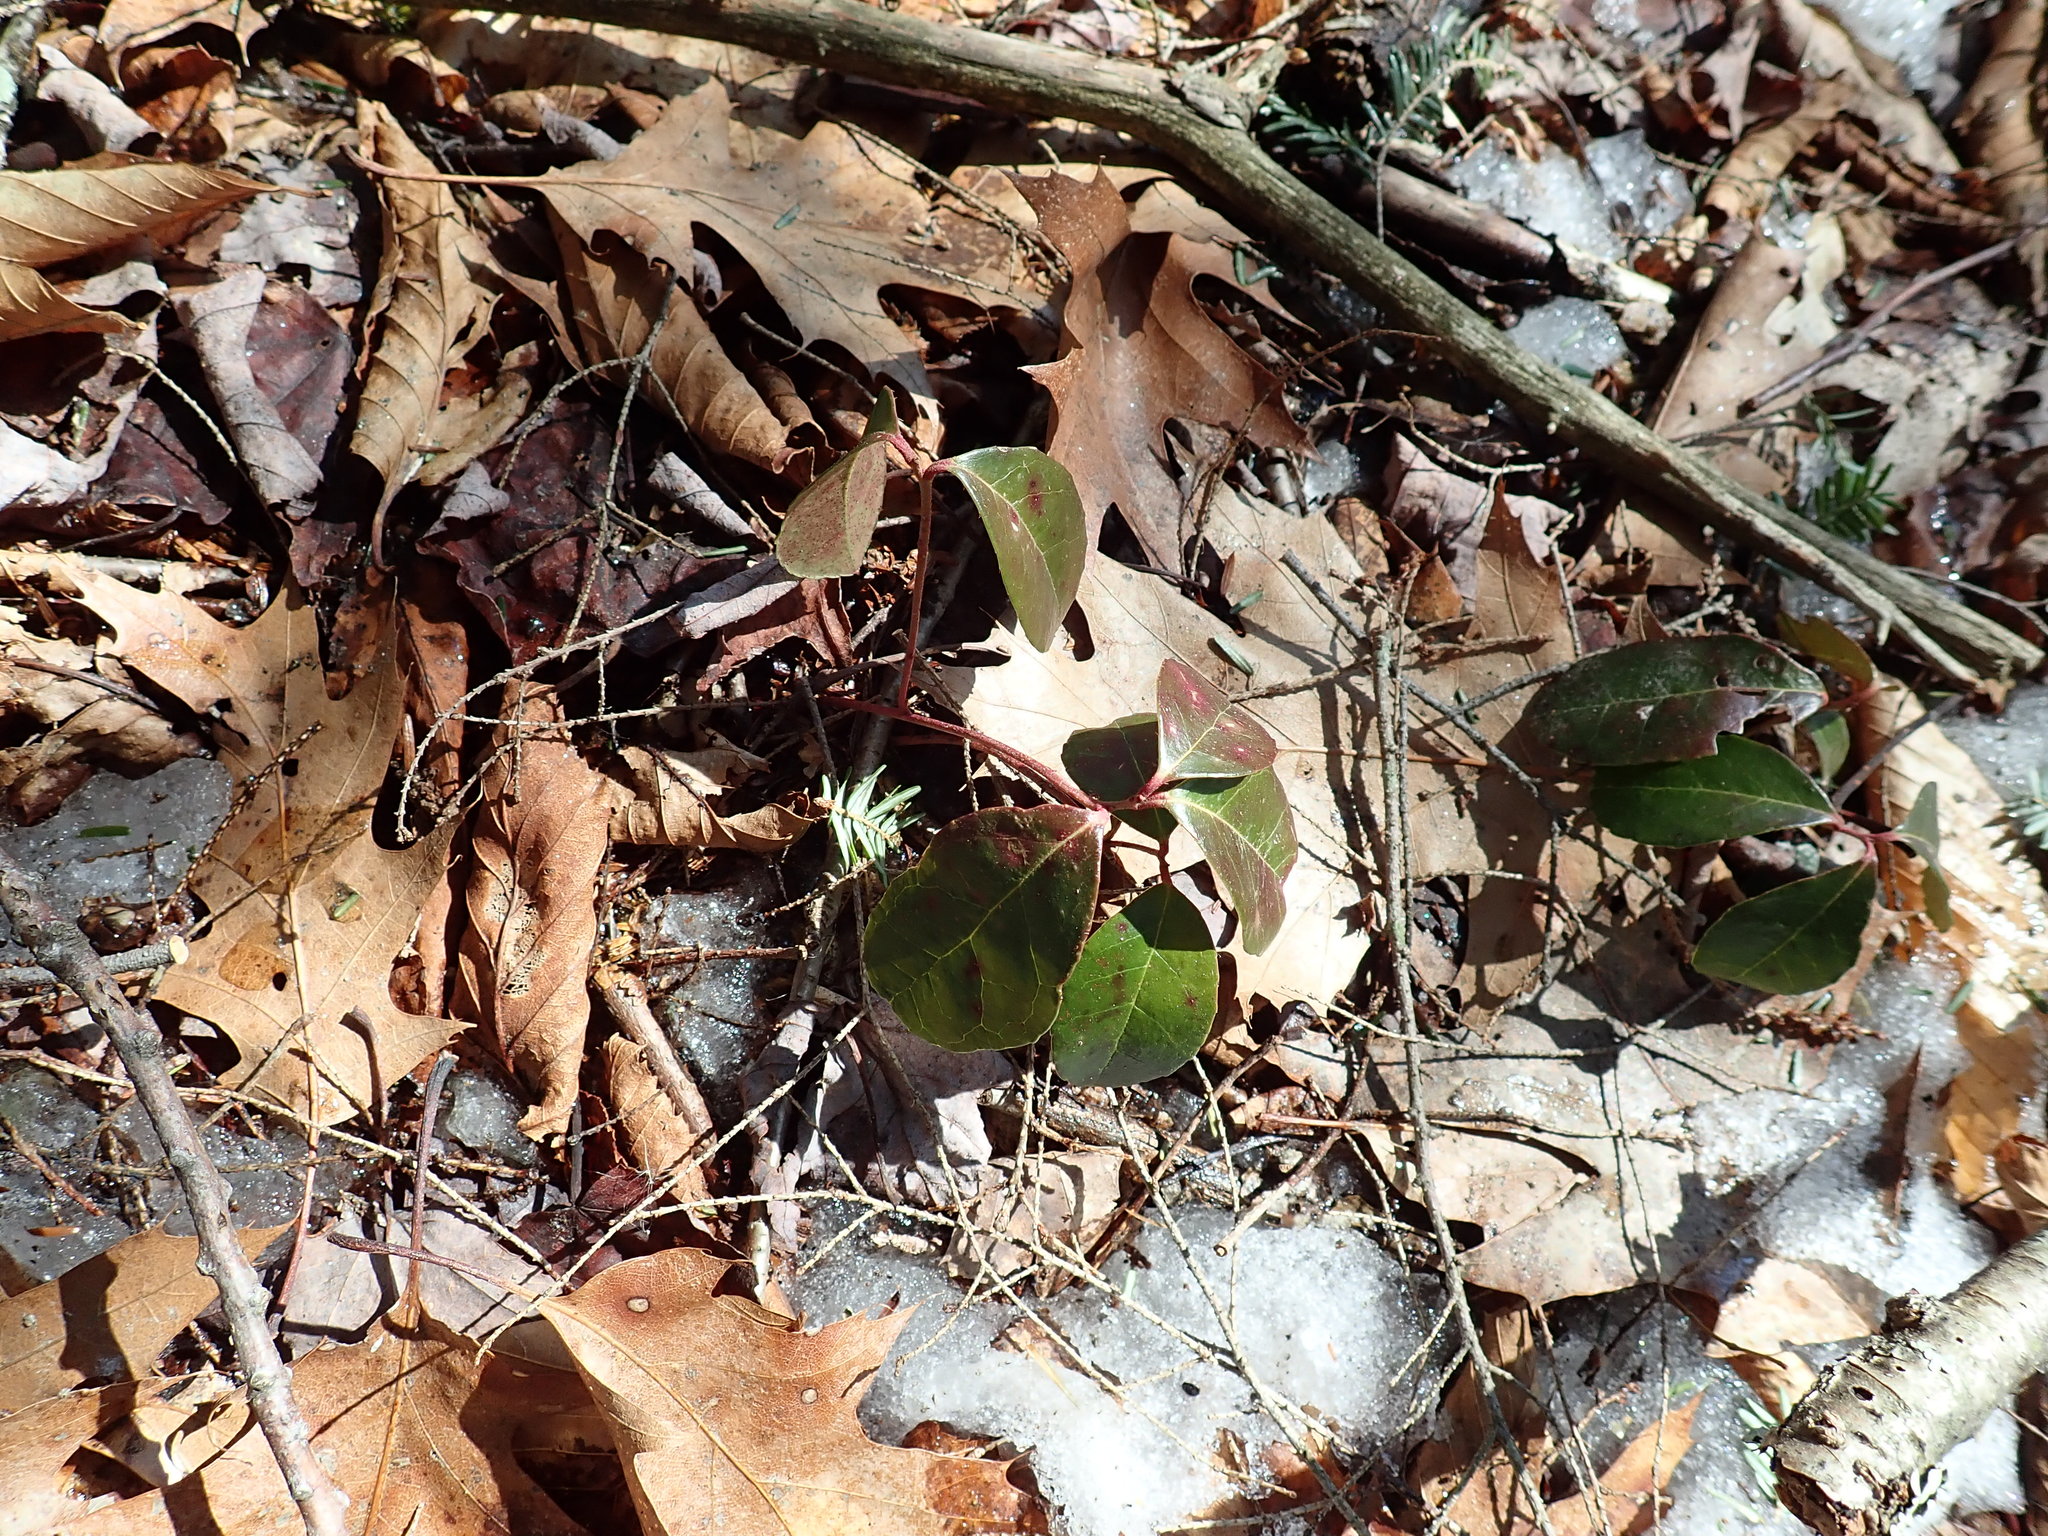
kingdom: Plantae
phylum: Tracheophyta
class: Magnoliopsida
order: Ericales
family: Ericaceae
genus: Gaultheria
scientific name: Gaultheria procumbens
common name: Checkerberry
